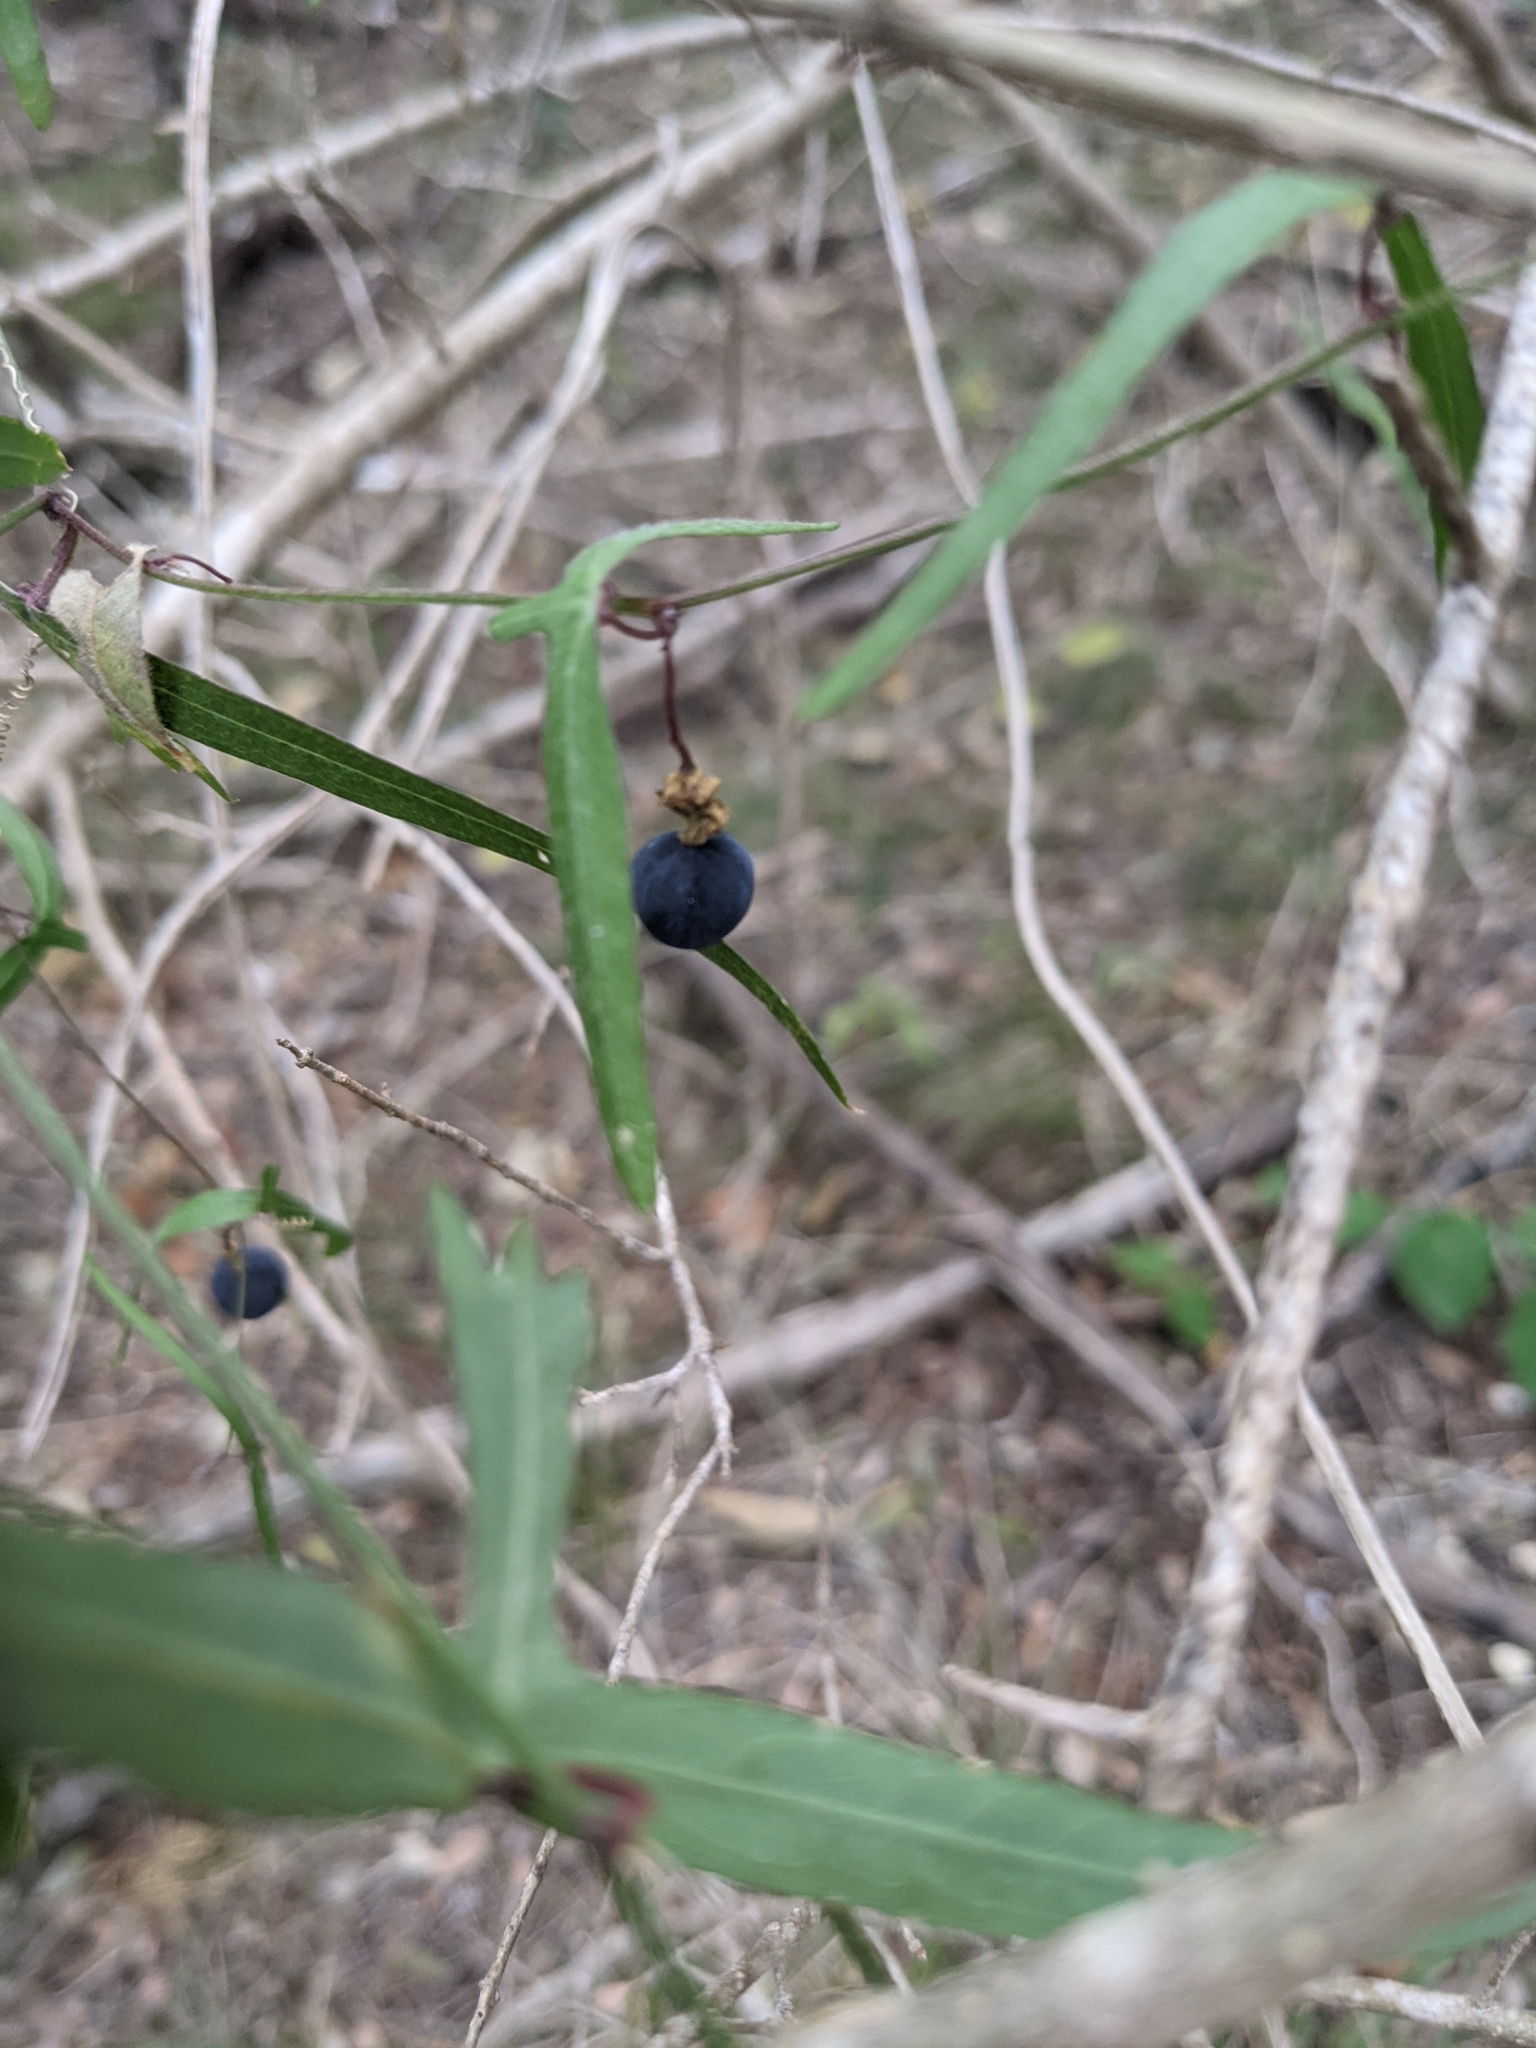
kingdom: Plantae
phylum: Tracheophyta
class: Magnoliopsida
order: Malpighiales
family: Passifloraceae
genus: Passiflora
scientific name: Passiflora tenuiloba
